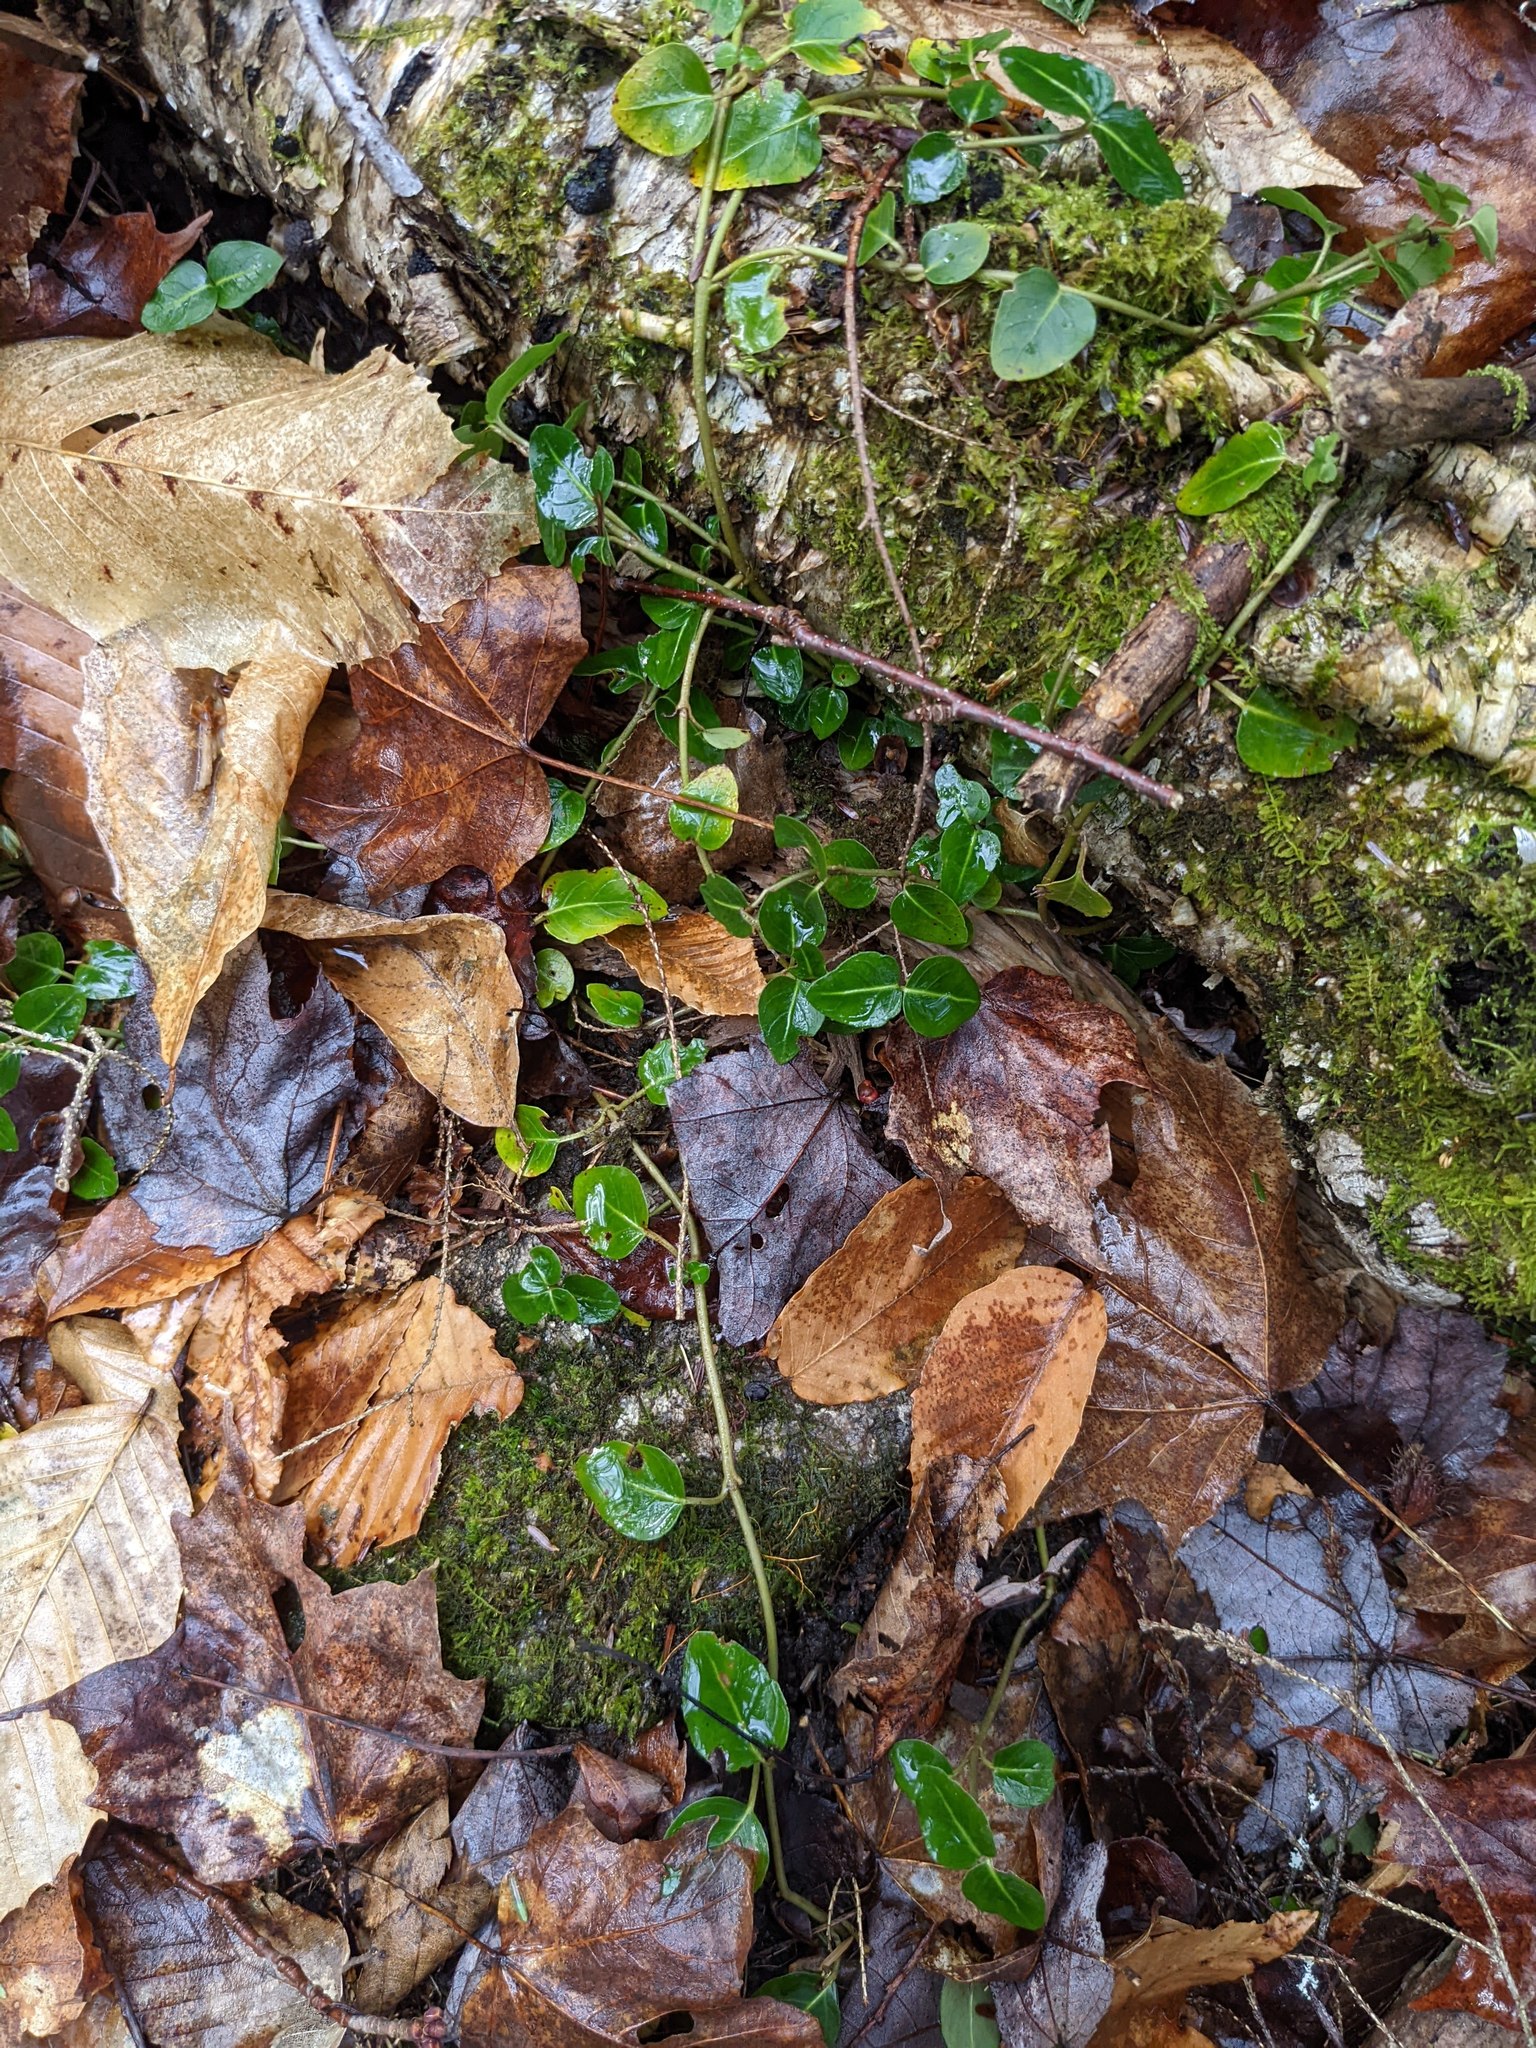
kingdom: Plantae
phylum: Tracheophyta
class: Magnoliopsida
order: Fagales
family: Fagaceae
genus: Fagus
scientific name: Fagus grandifolia
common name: American beech
